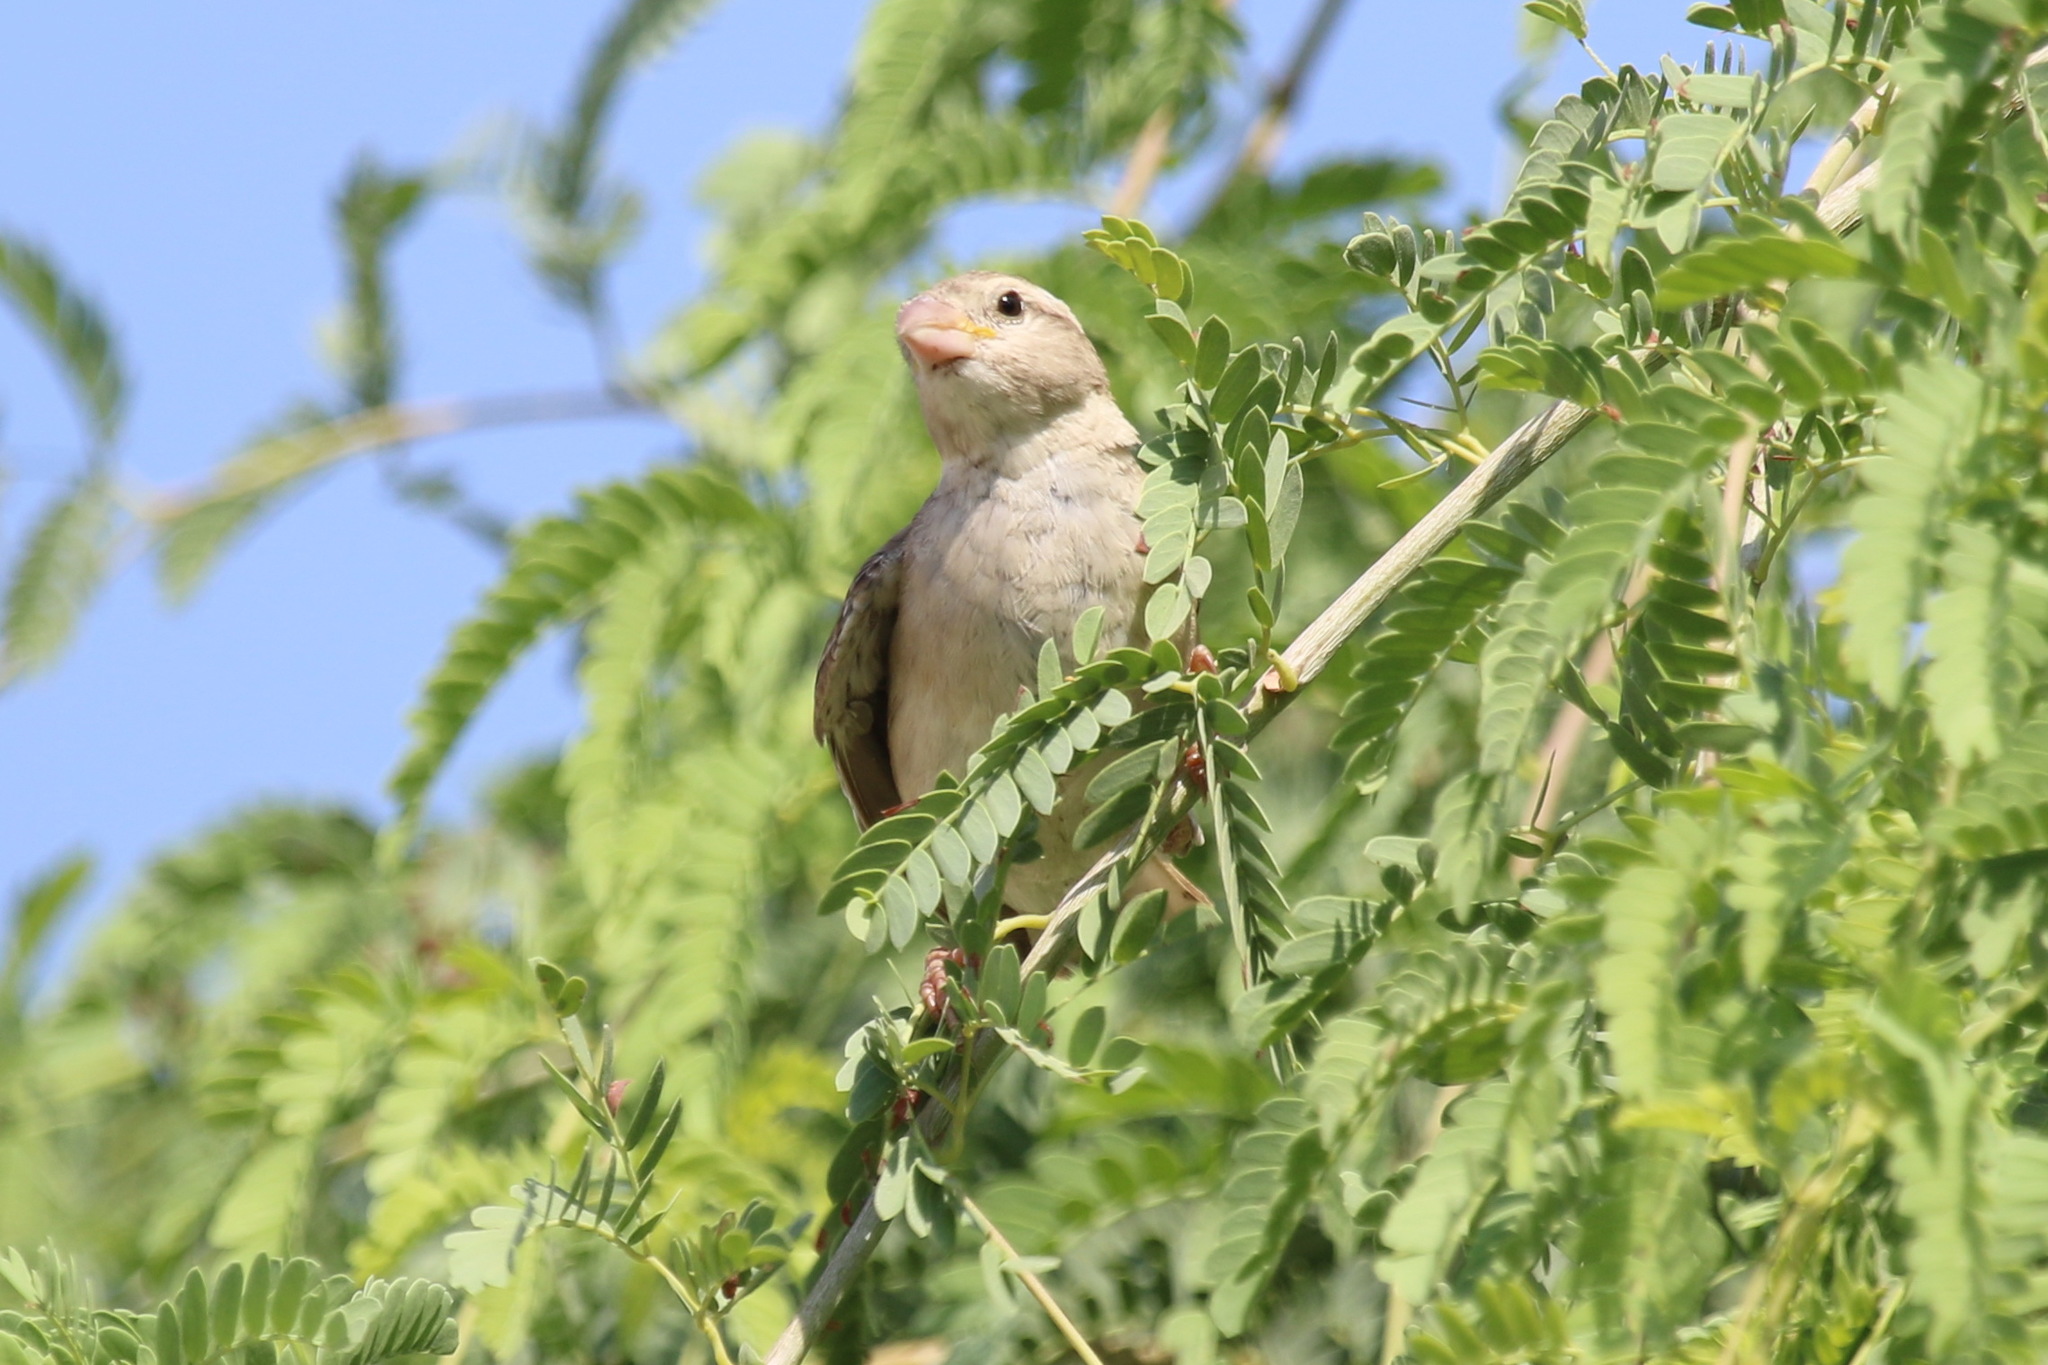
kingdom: Animalia
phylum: Chordata
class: Aves
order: Passeriformes
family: Passeridae
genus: Passer
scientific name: Passer domesticus
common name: House sparrow
